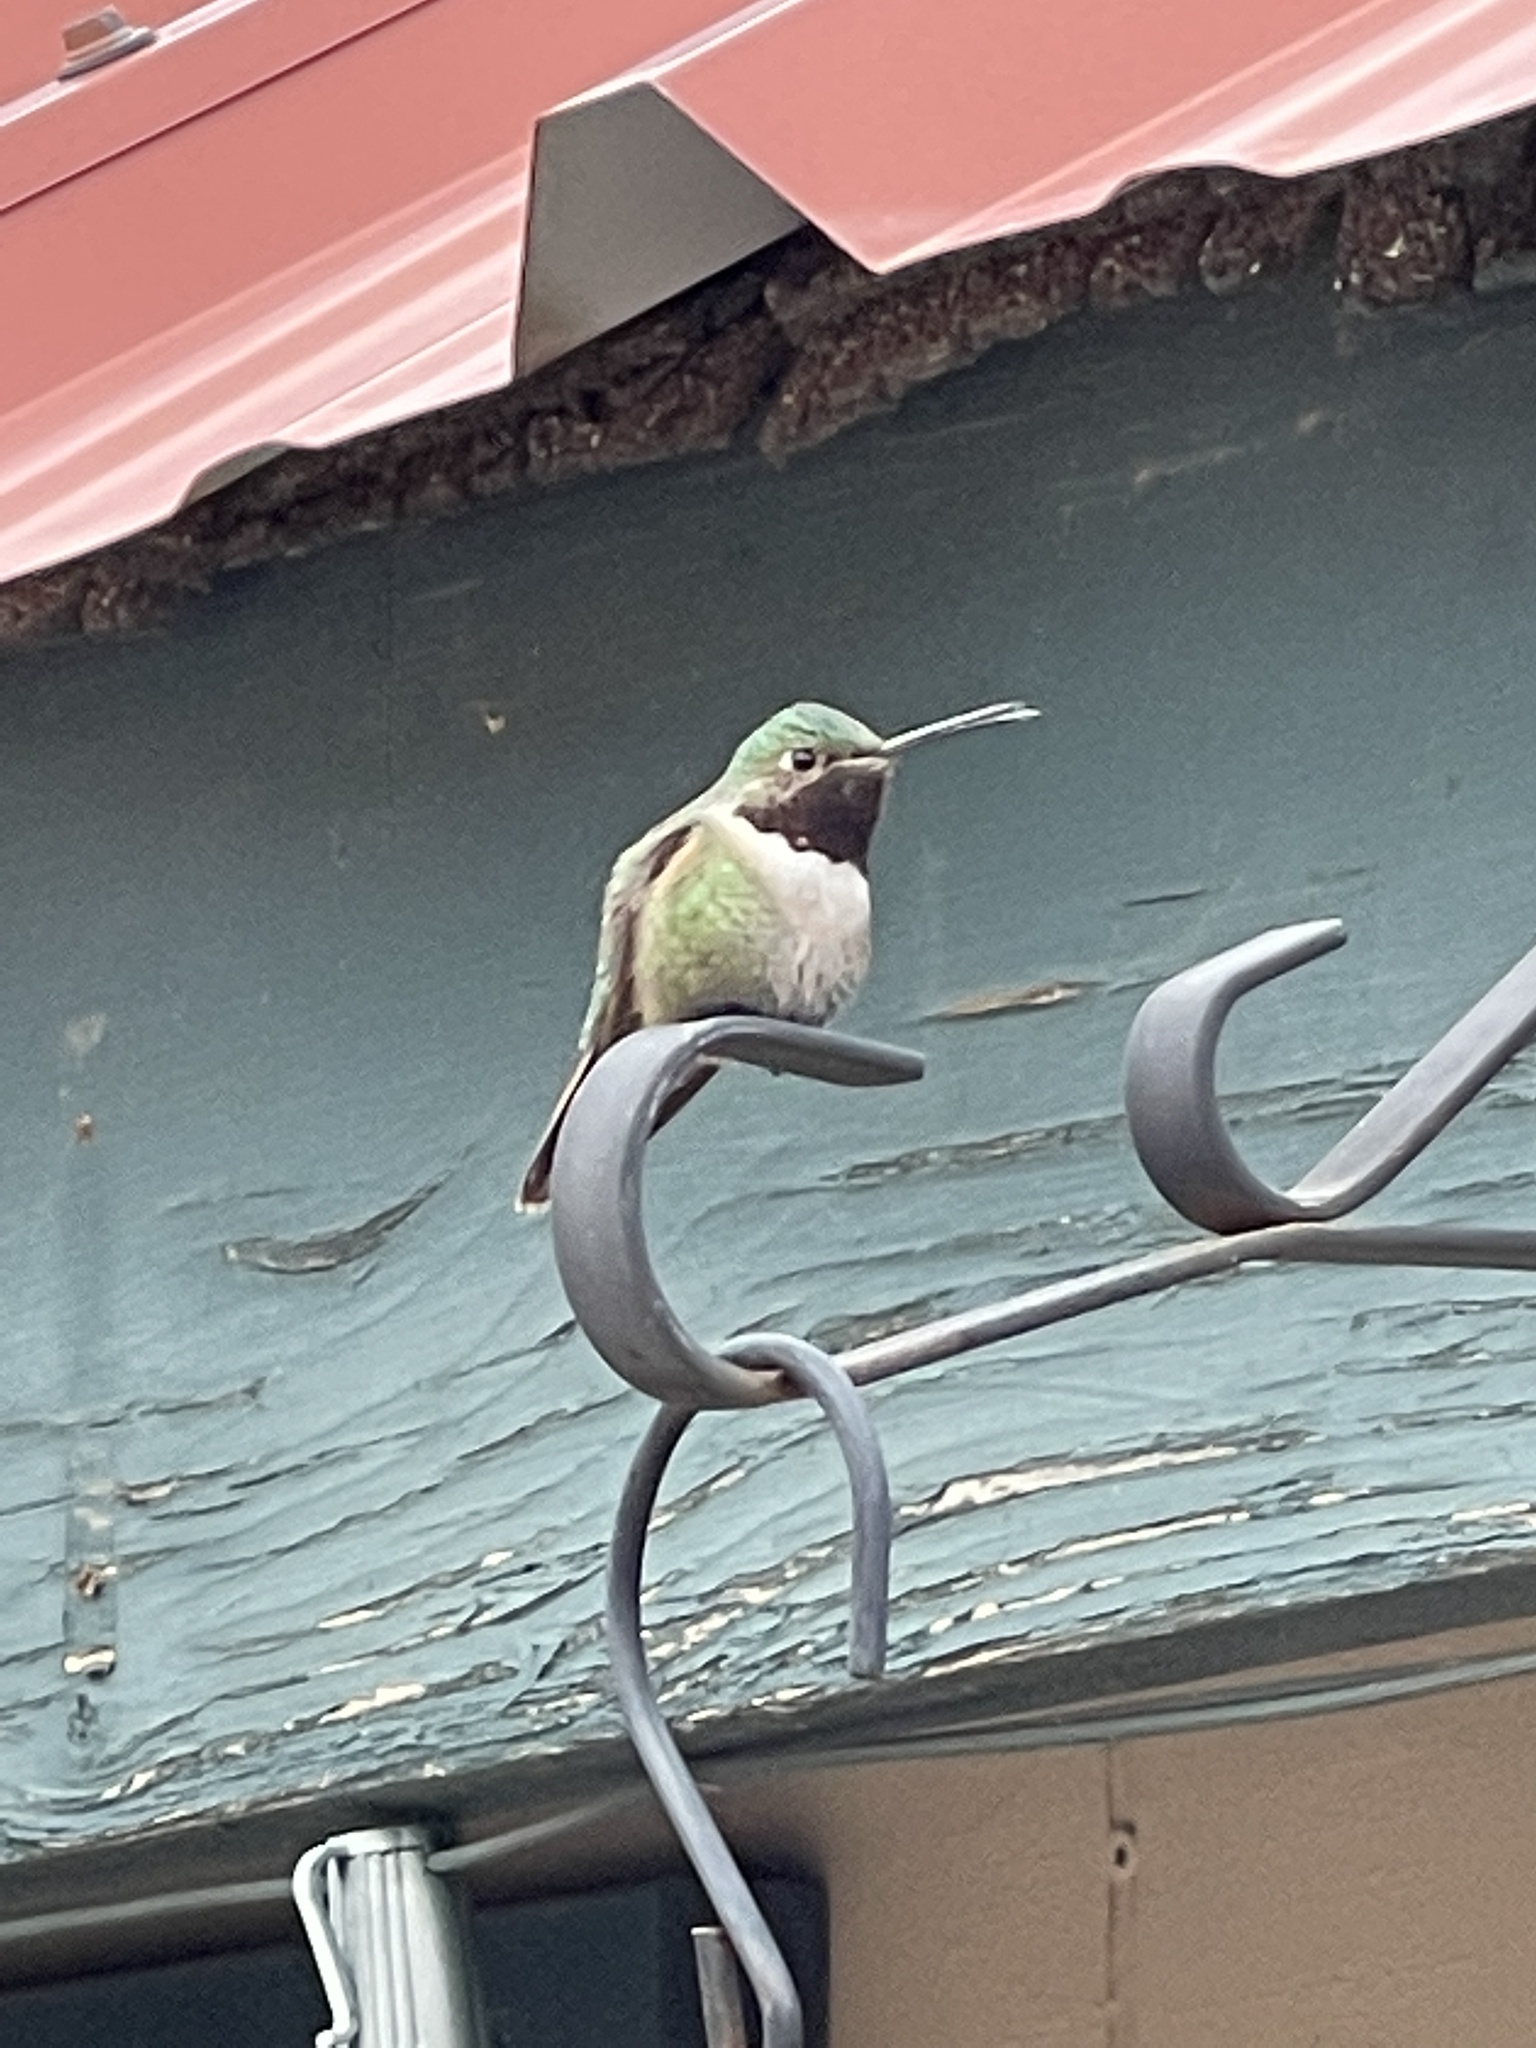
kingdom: Animalia
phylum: Chordata
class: Aves
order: Apodiformes
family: Trochilidae
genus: Selasphorus
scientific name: Selasphorus platycercus
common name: Broad-tailed hummingbird
